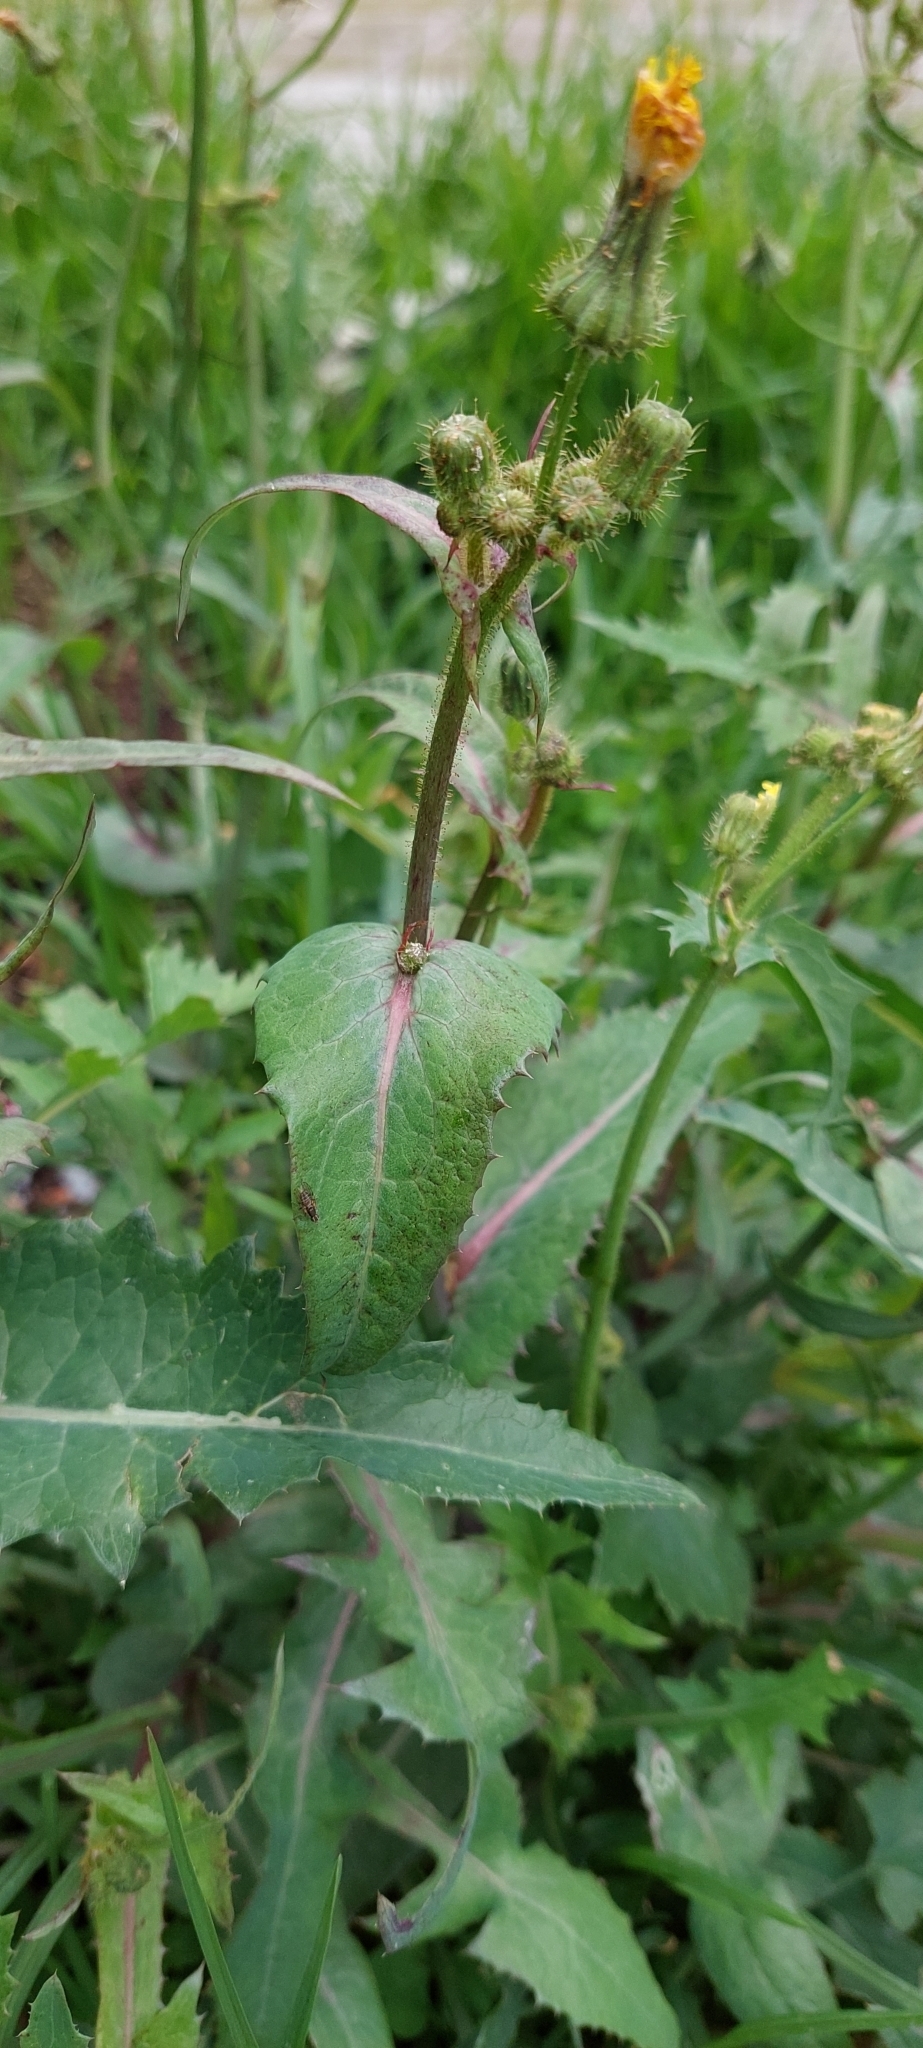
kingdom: Plantae
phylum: Tracheophyta
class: Magnoliopsida
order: Asterales
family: Asteraceae
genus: Sonchus
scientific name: Sonchus oleraceus
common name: Common sowthistle
